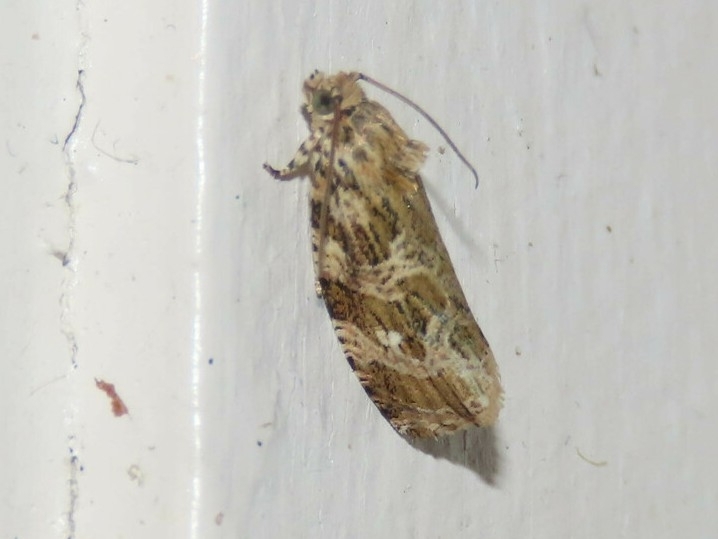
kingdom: Animalia
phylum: Arthropoda
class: Insecta
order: Lepidoptera
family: Tortricidae
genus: Phaecasiophora
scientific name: Phaecasiophora confixana
